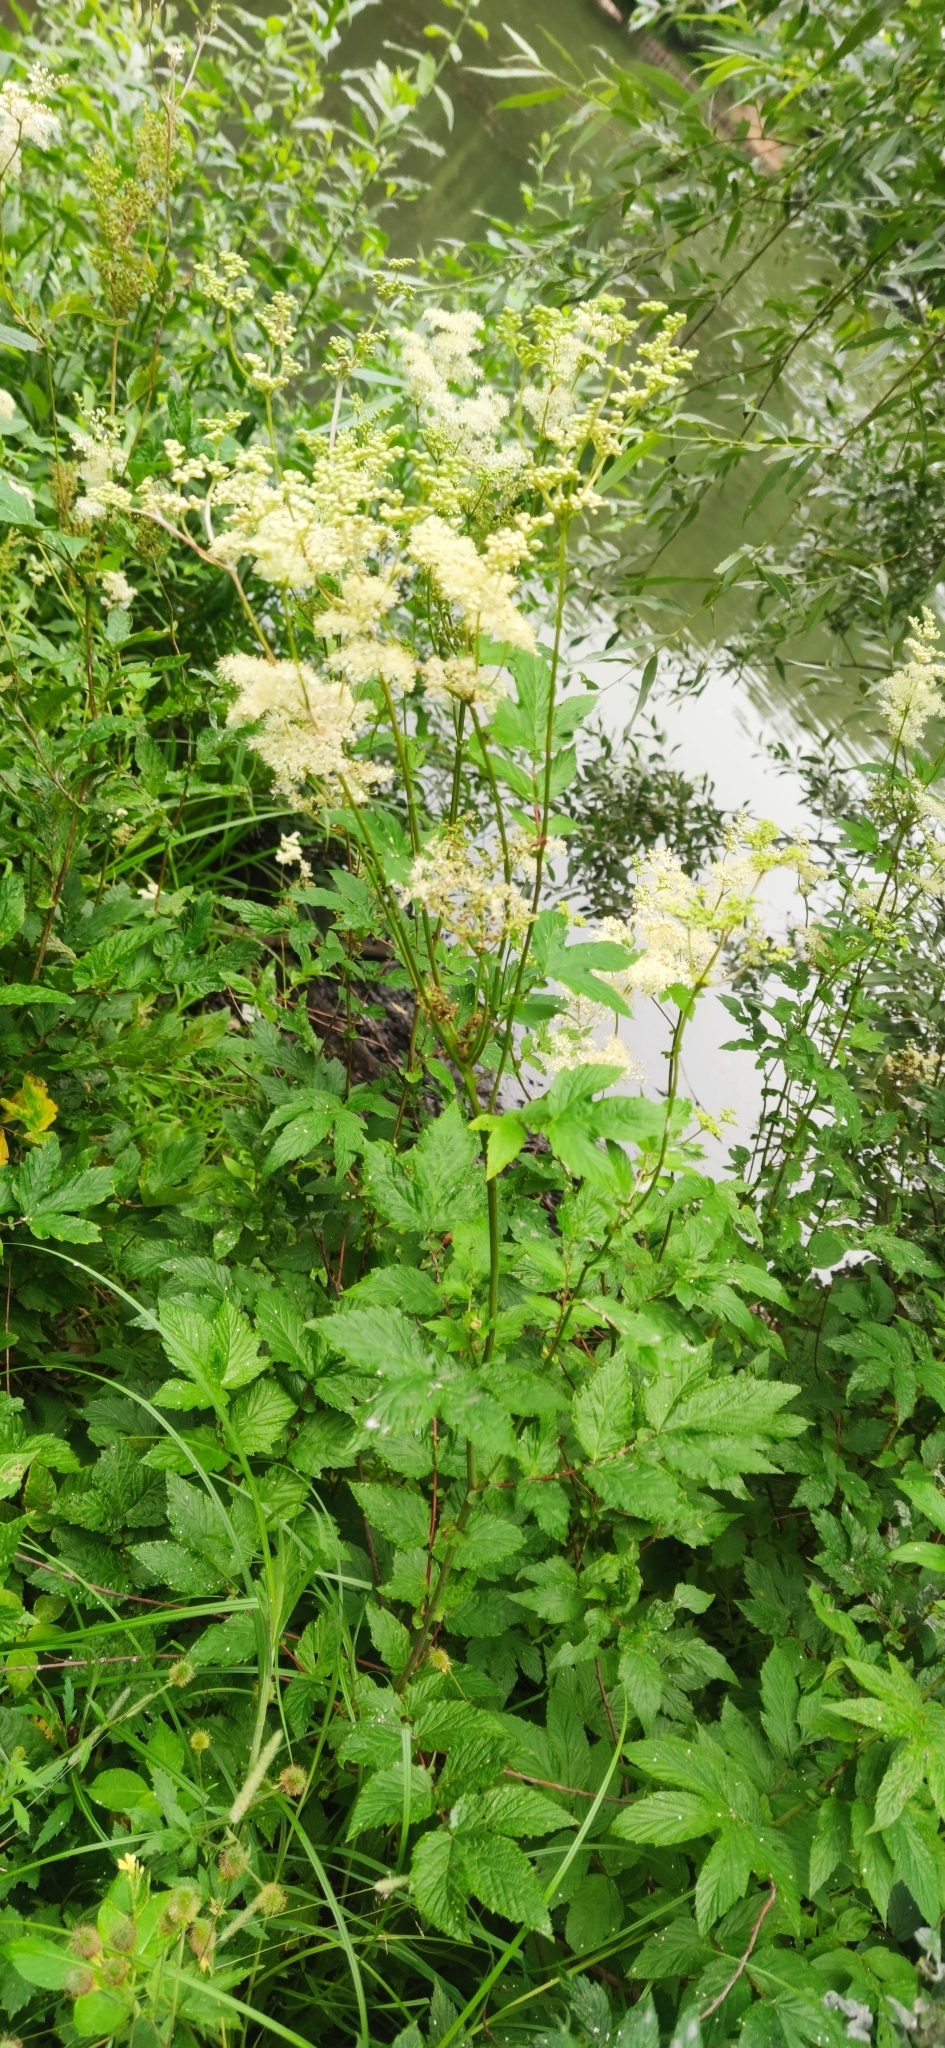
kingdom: Plantae
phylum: Tracheophyta
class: Magnoliopsida
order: Rosales
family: Rosaceae
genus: Filipendula
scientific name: Filipendula ulmaria
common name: Meadowsweet
